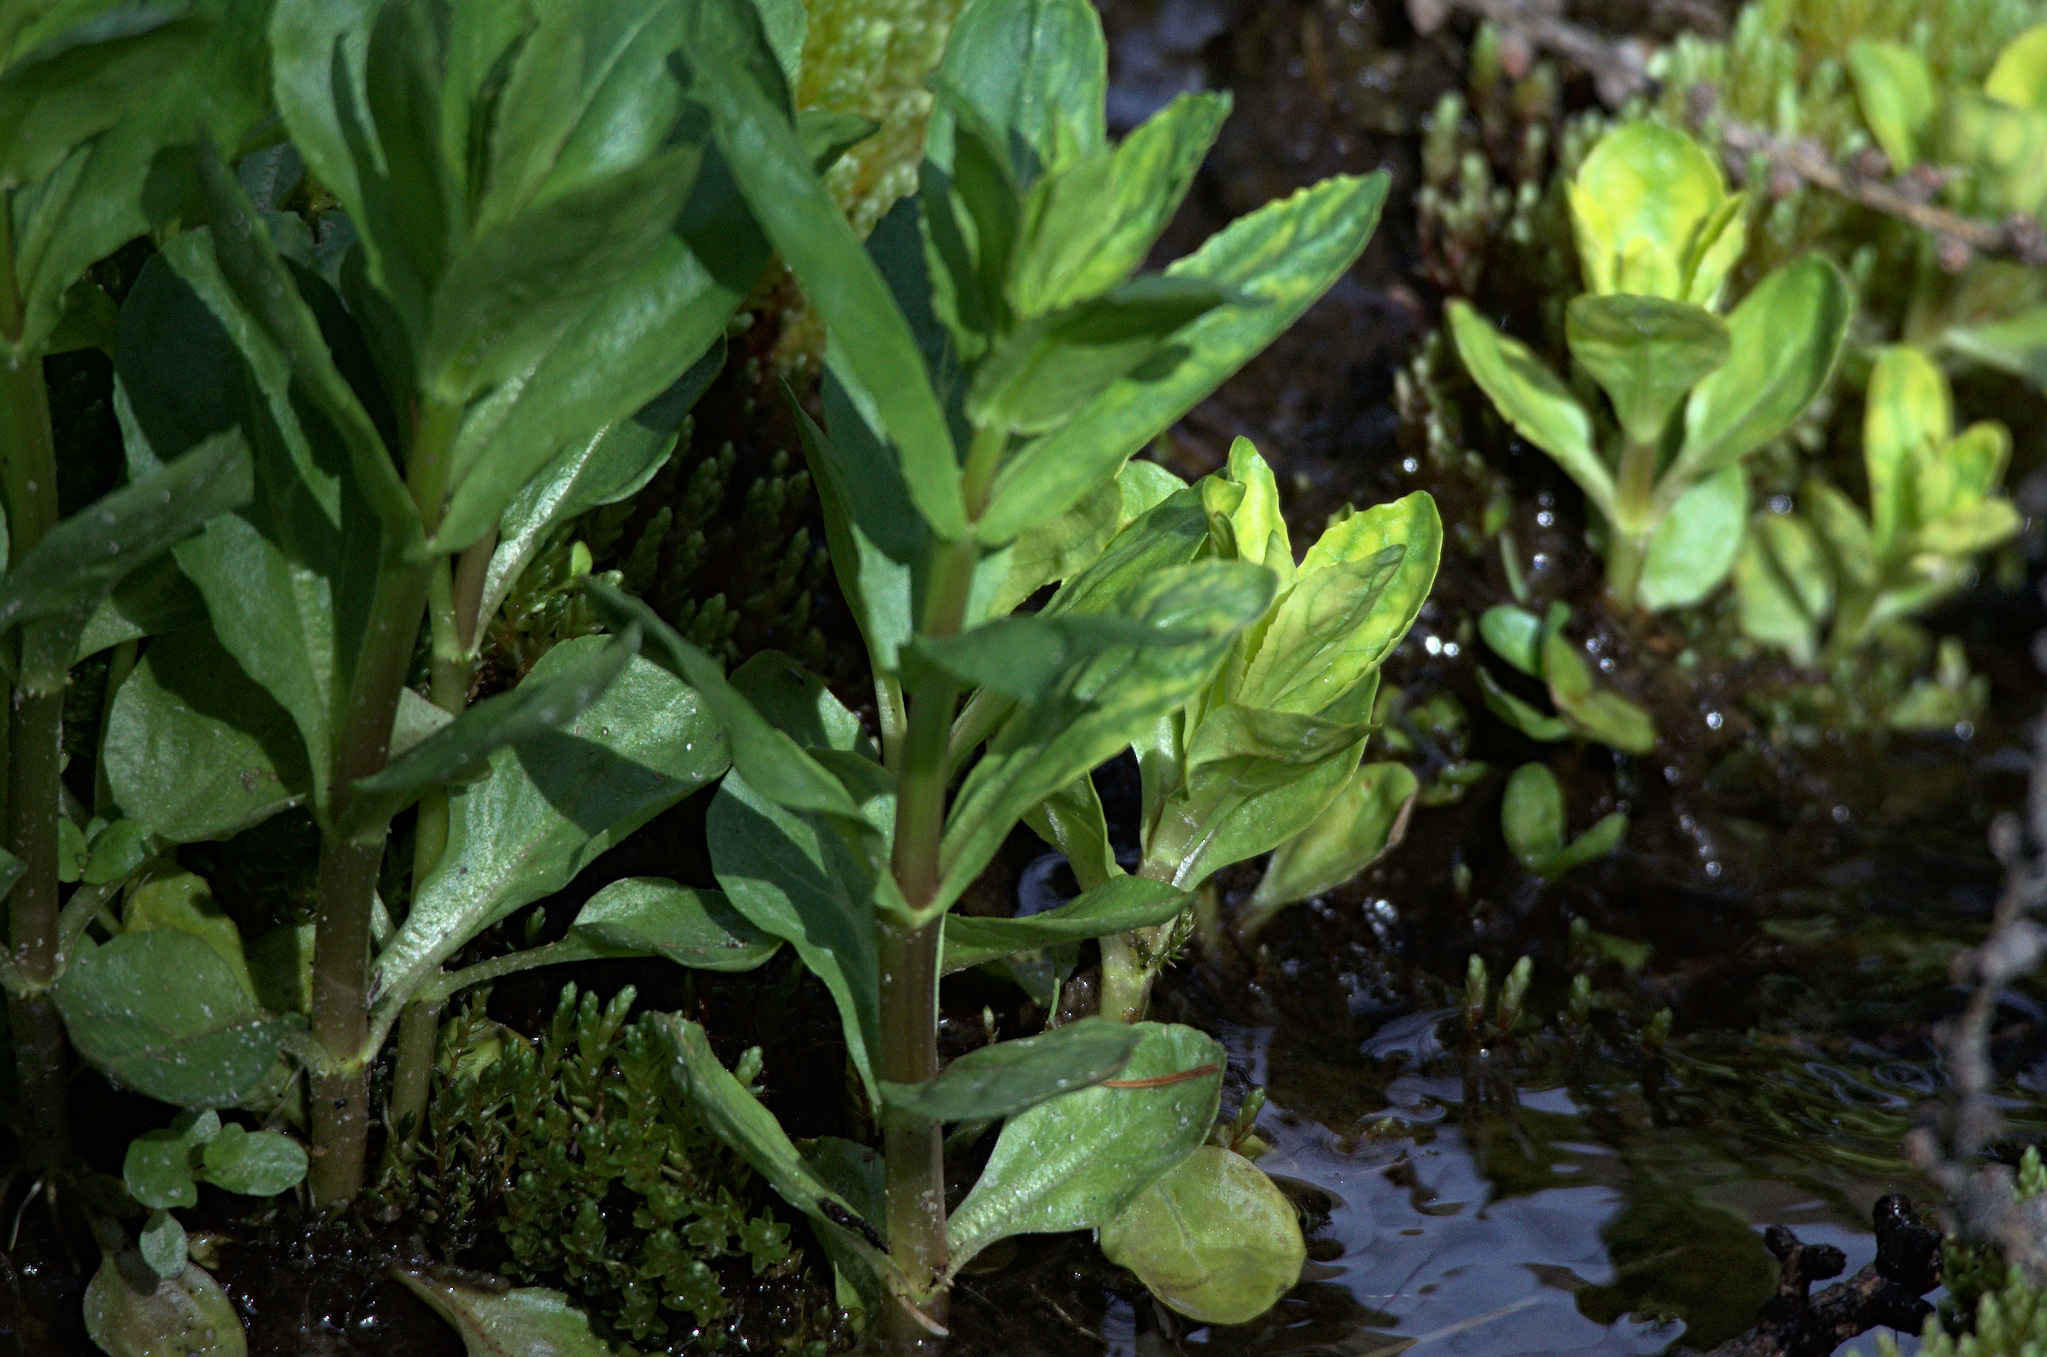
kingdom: Plantae
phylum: Tracheophyta
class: Magnoliopsida
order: Lamiales
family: Plantaginaceae
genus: Veronica
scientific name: Veronica anagallis-aquatica
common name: Water speedwell
